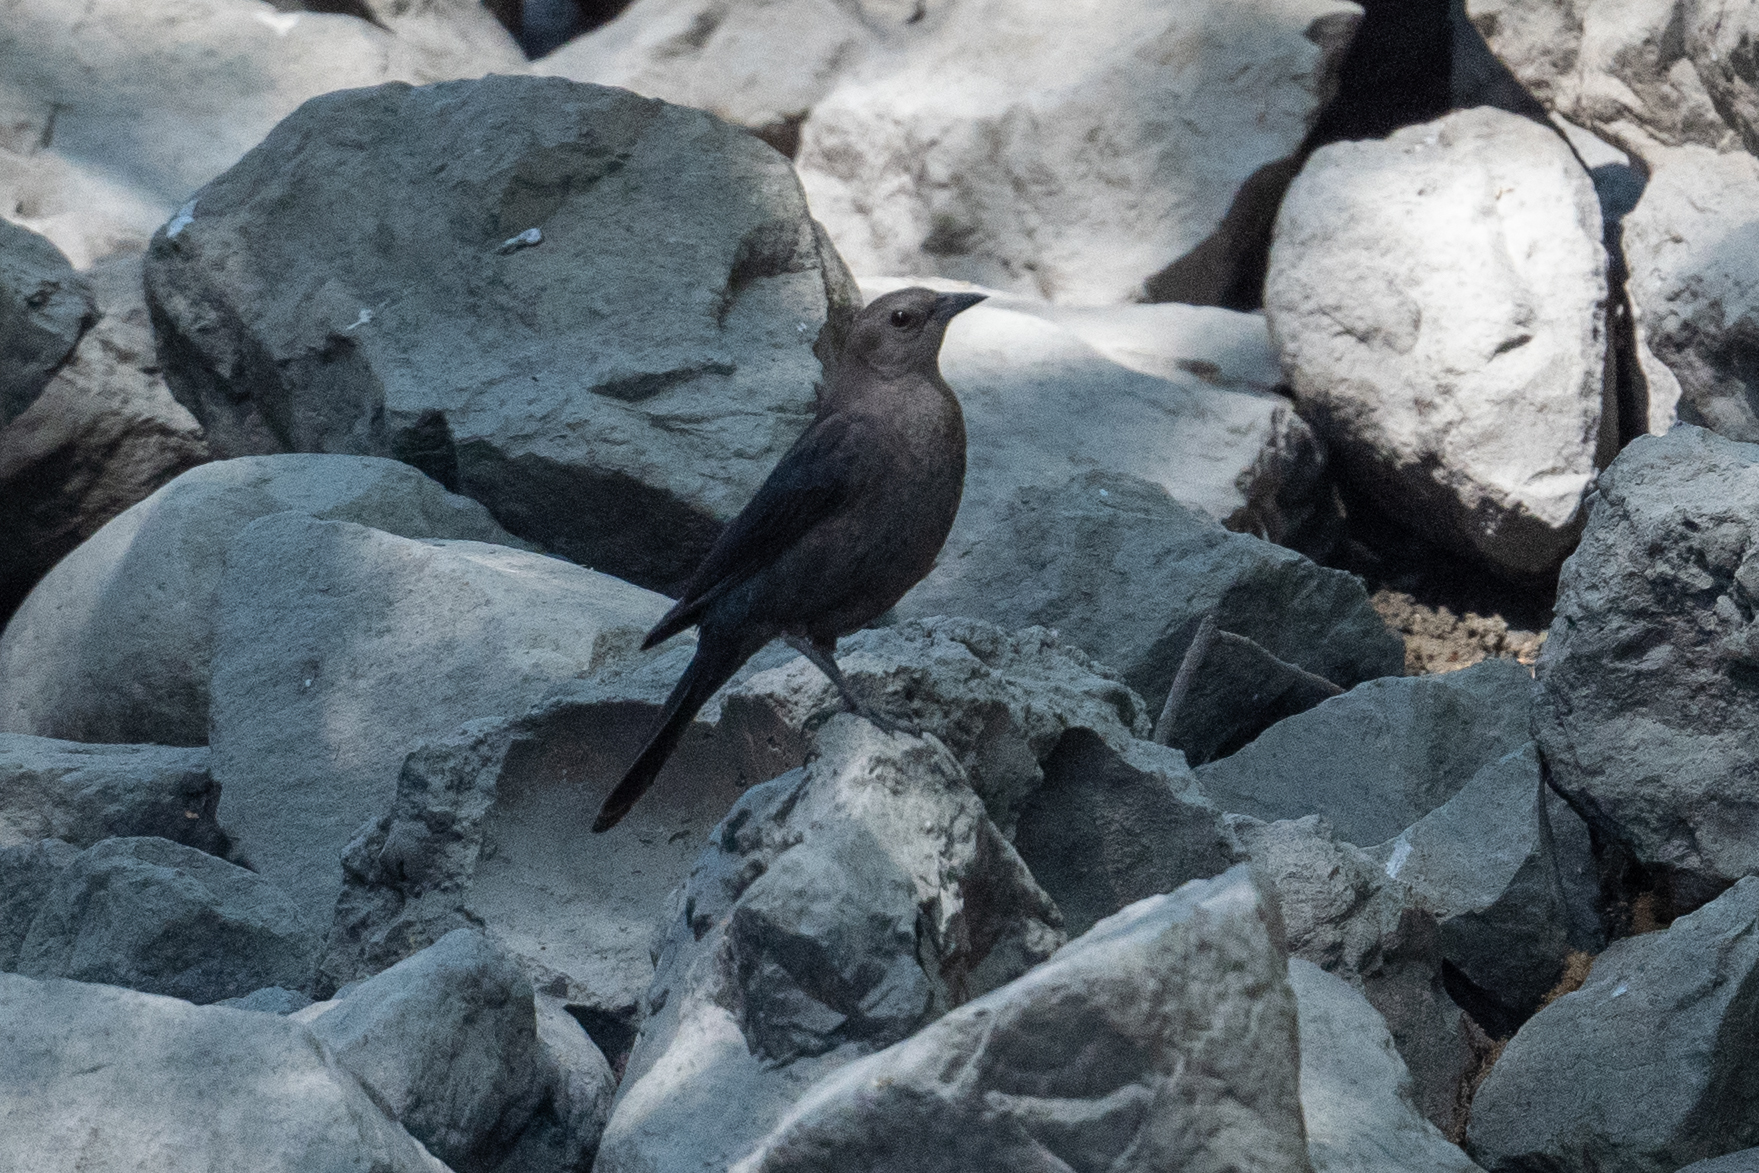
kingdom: Animalia
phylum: Chordata
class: Aves
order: Passeriformes
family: Icteridae
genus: Euphagus
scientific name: Euphagus cyanocephalus
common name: Brewer's blackbird
